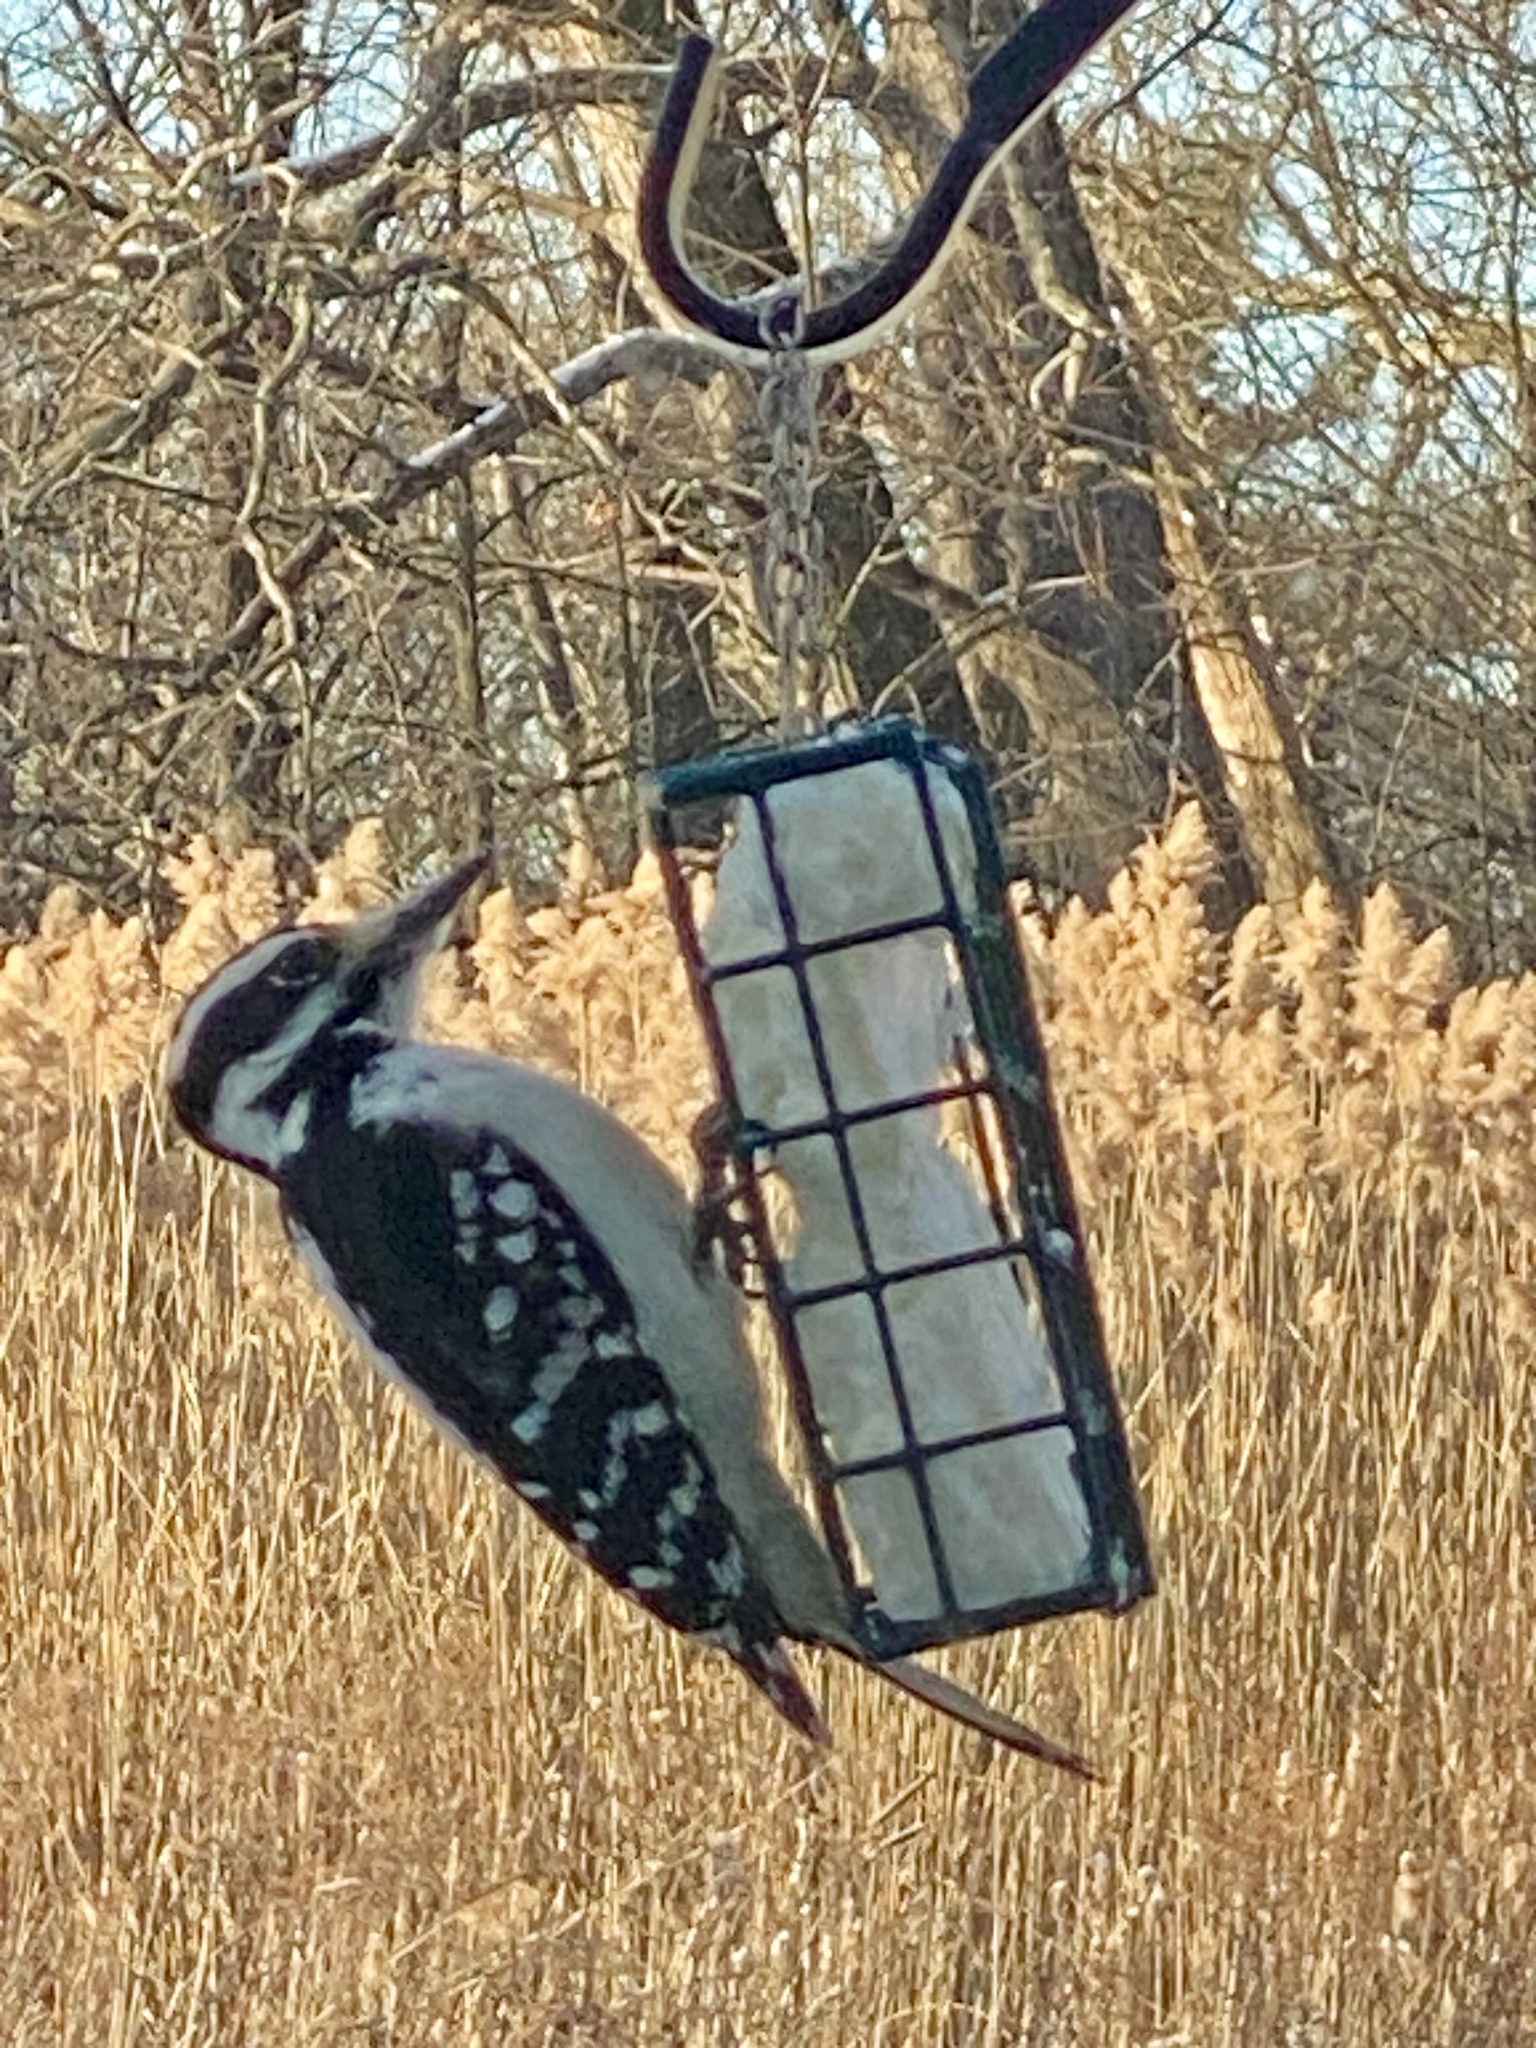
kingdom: Animalia
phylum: Chordata
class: Aves
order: Piciformes
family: Picidae
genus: Leuconotopicus
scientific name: Leuconotopicus villosus
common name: Hairy woodpecker
